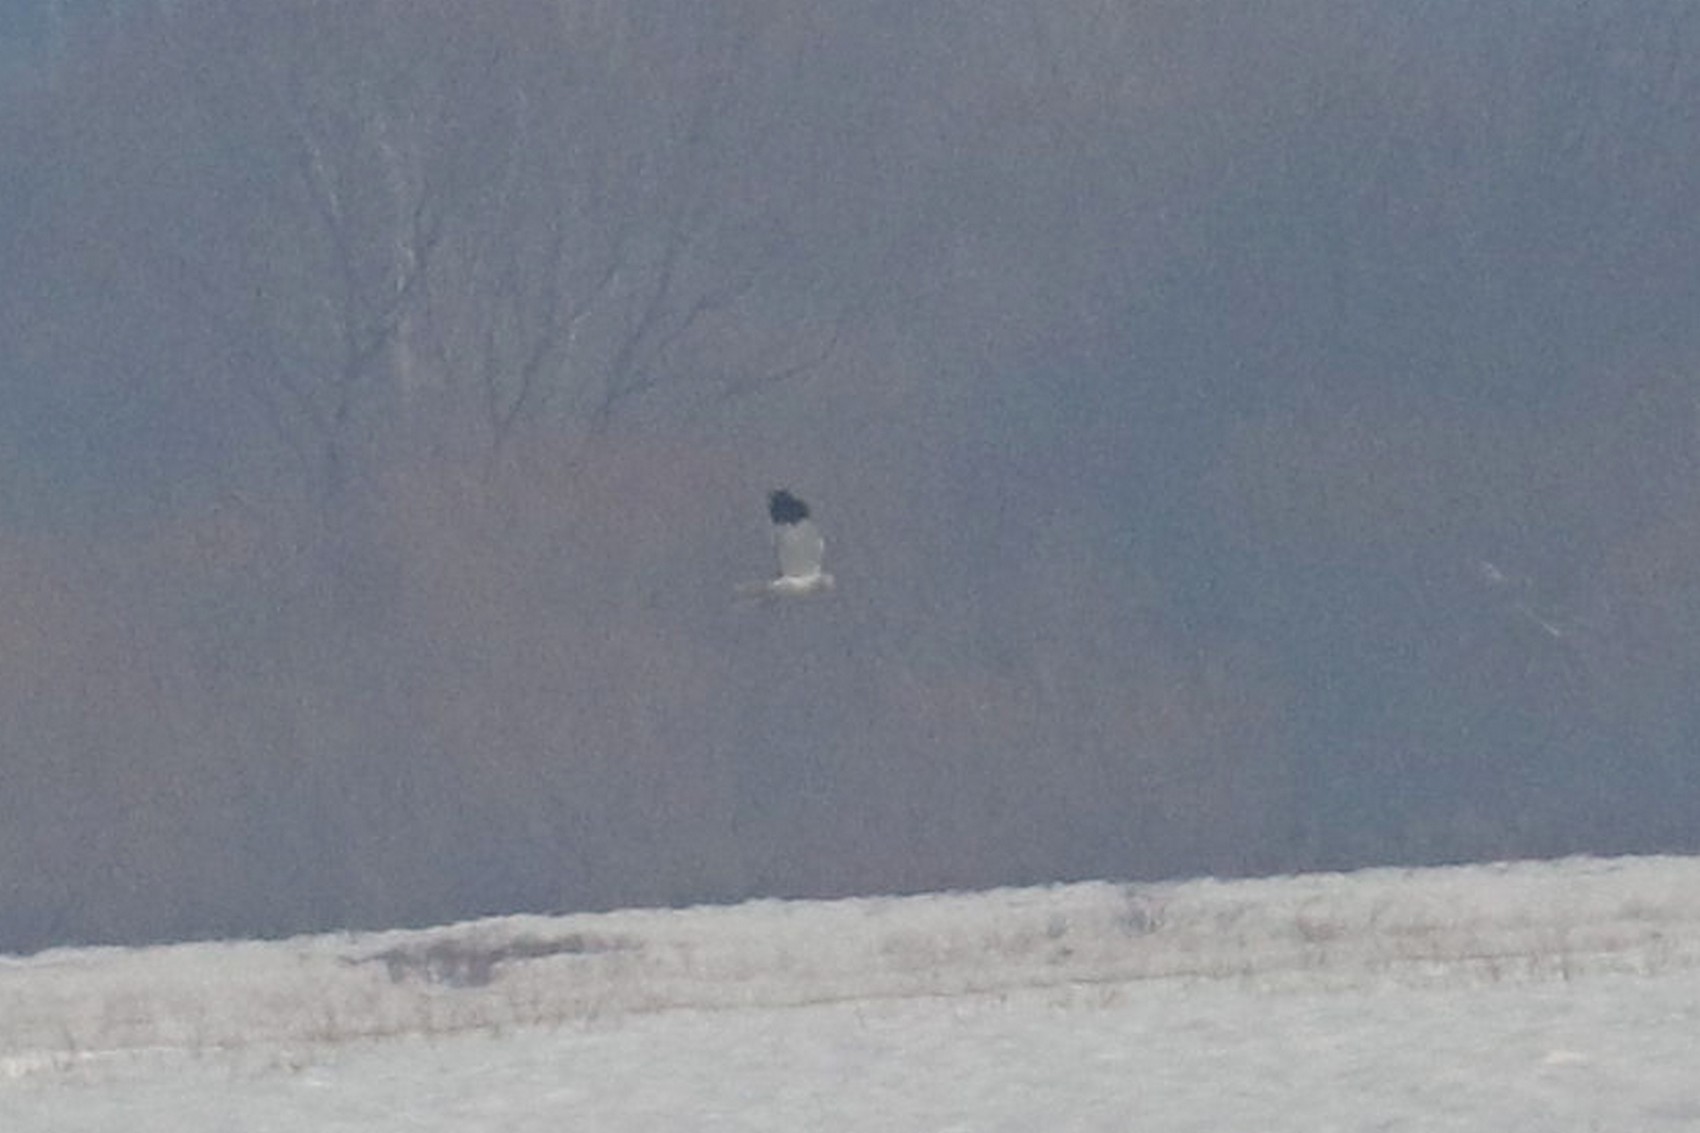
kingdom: Animalia
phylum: Chordata
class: Aves
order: Accipitriformes
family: Accipitridae
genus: Circus
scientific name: Circus cyaneus
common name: Hen harrier
